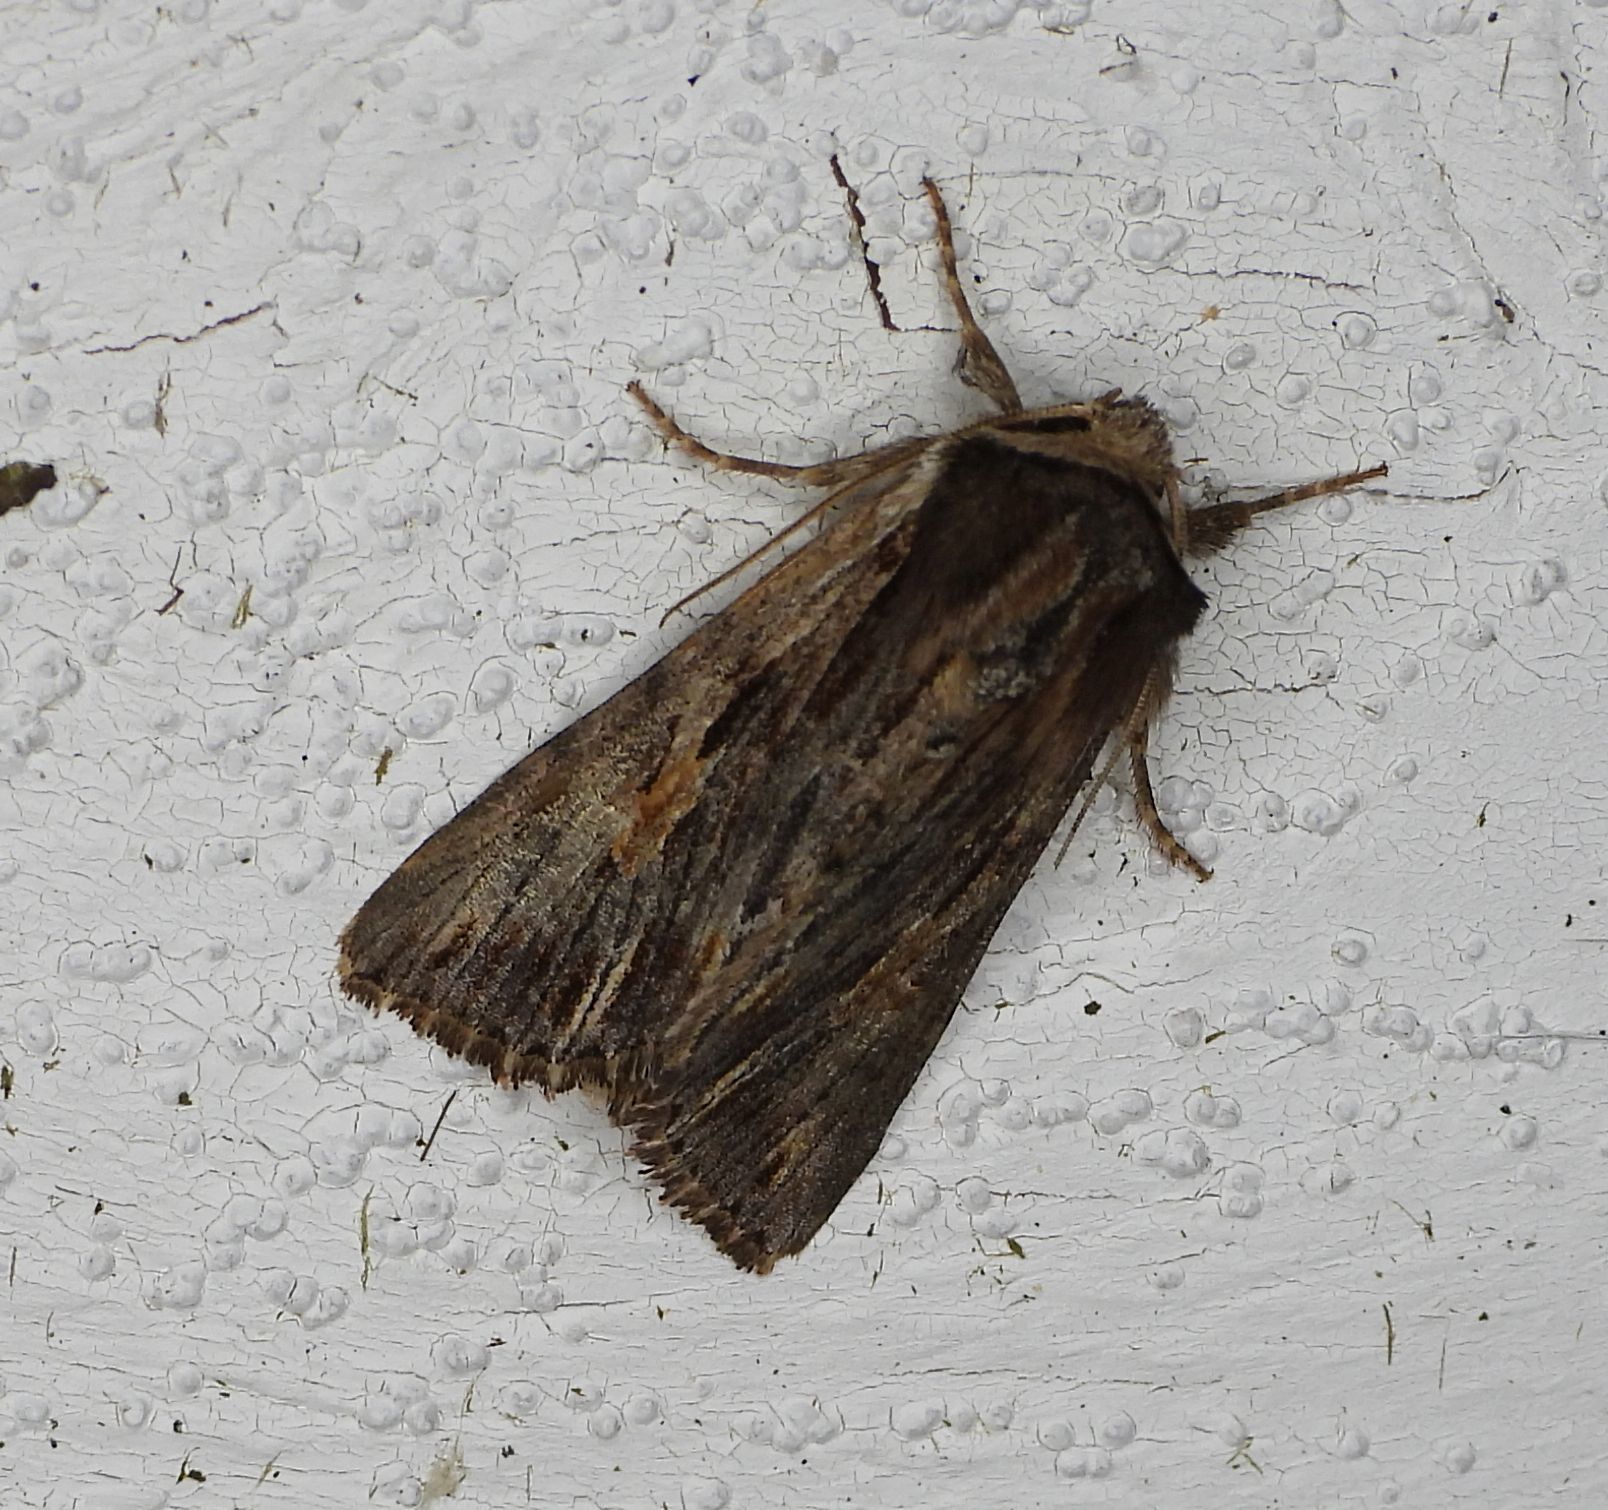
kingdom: Animalia
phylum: Arthropoda
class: Insecta
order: Lepidoptera
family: Noctuidae
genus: Achatia
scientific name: Achatia evicta
